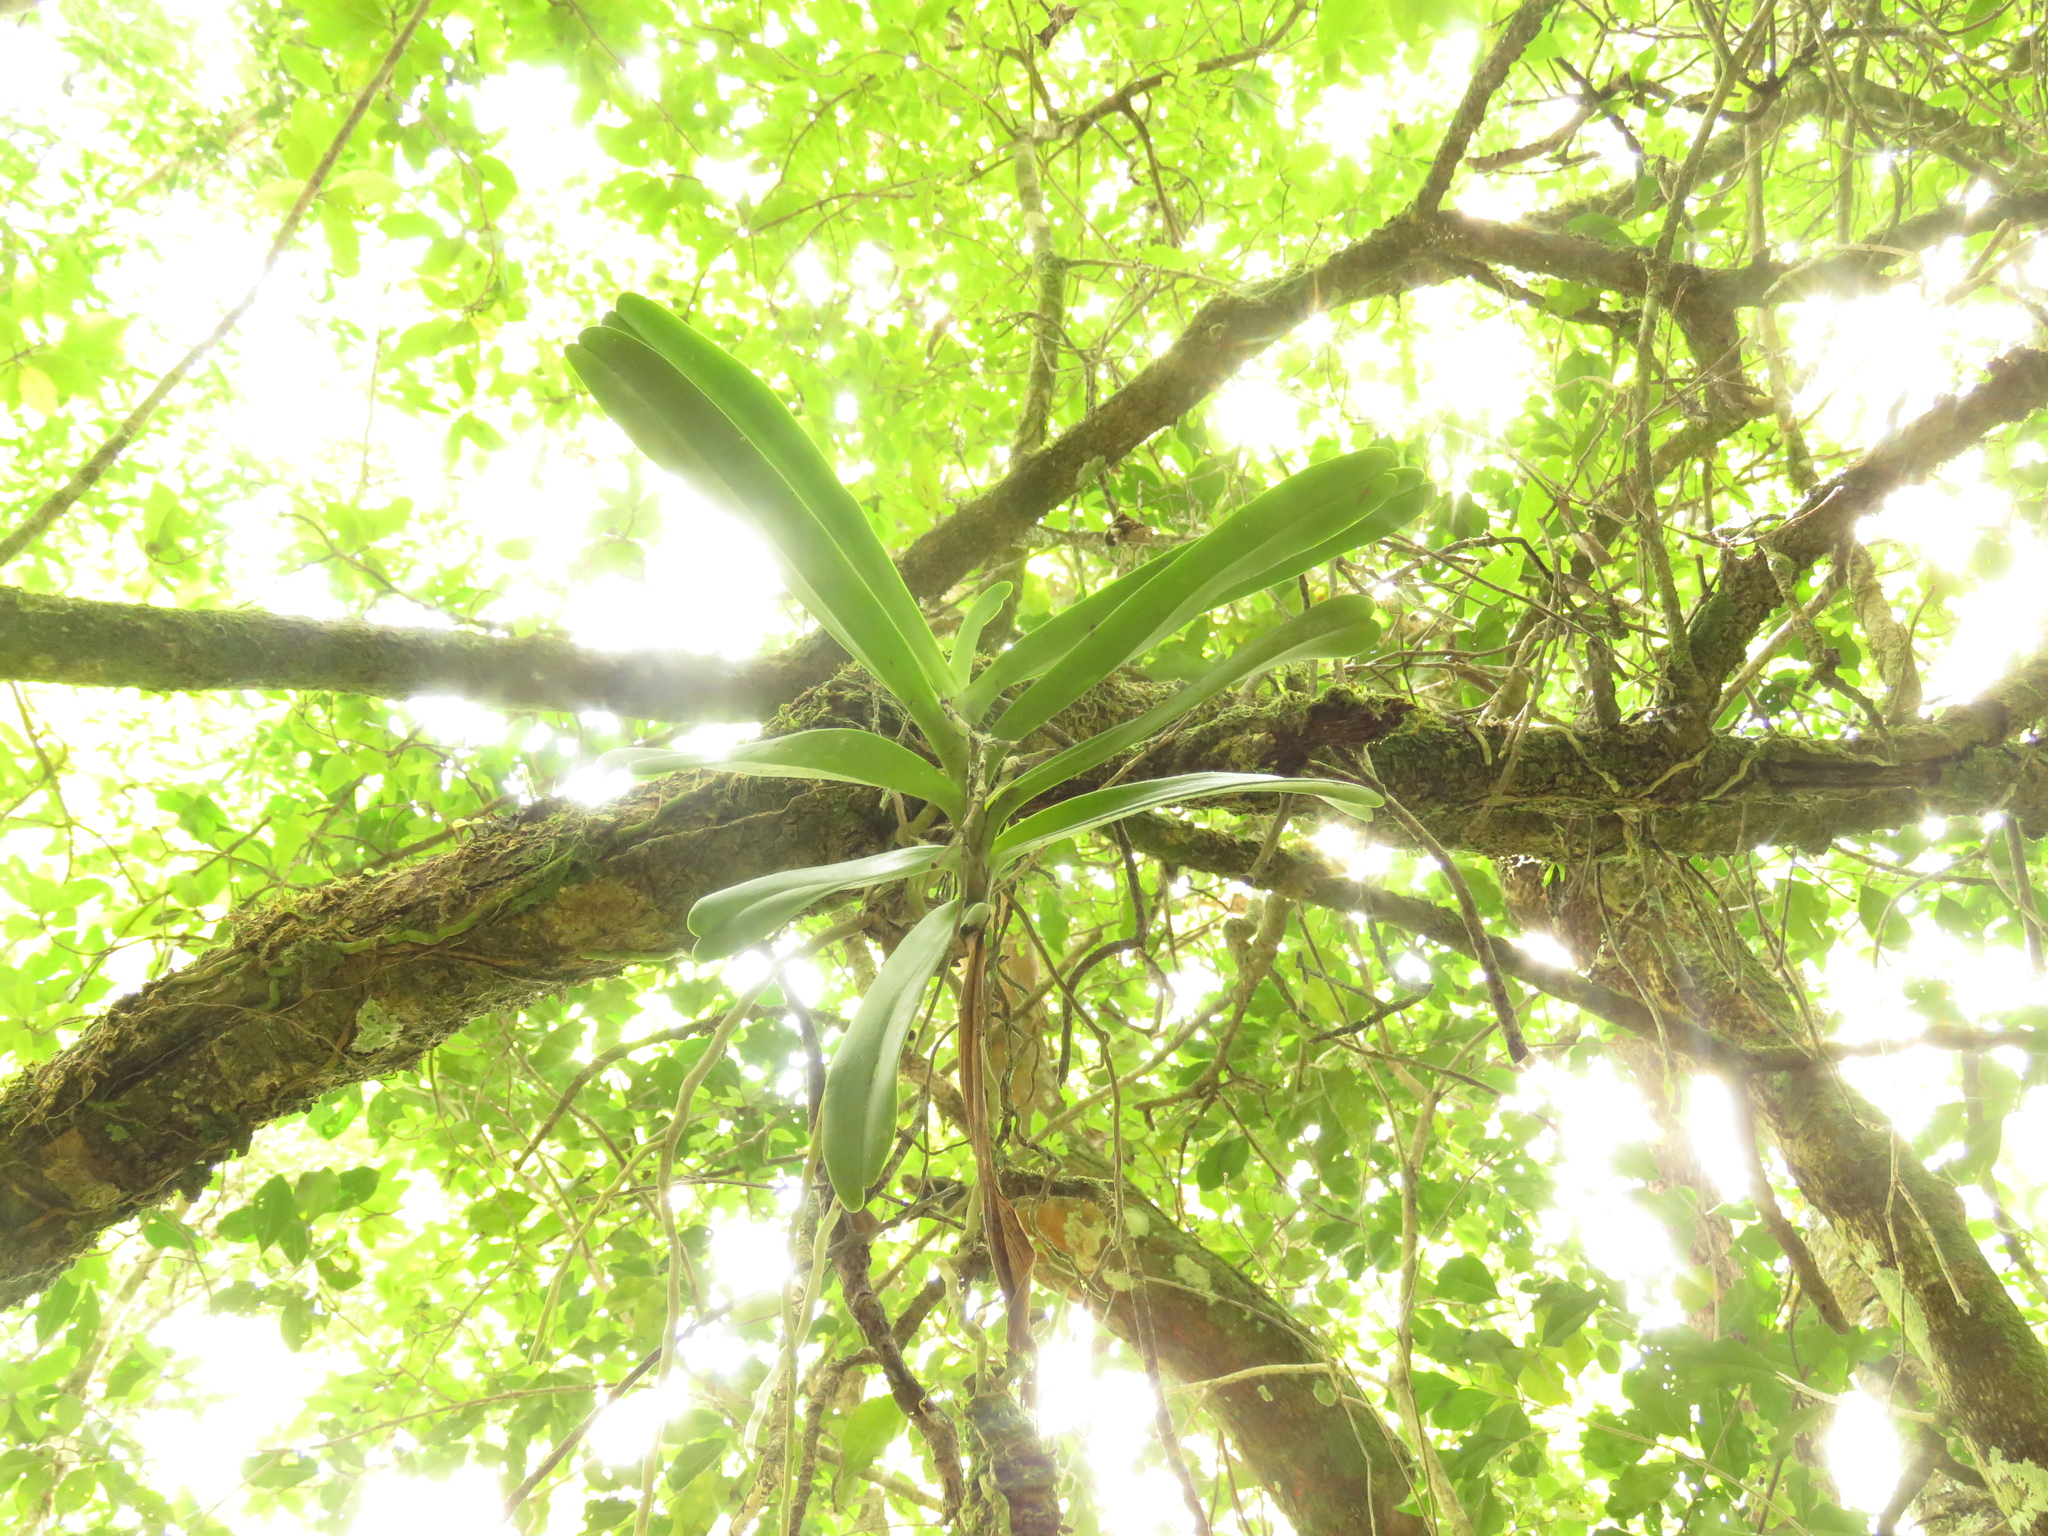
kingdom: Plantae
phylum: Tracheophyta
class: Liliopsida
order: Asparagales
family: Orchidaceae
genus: Cyrtorchis
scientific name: Cyrtorchis arcuata
